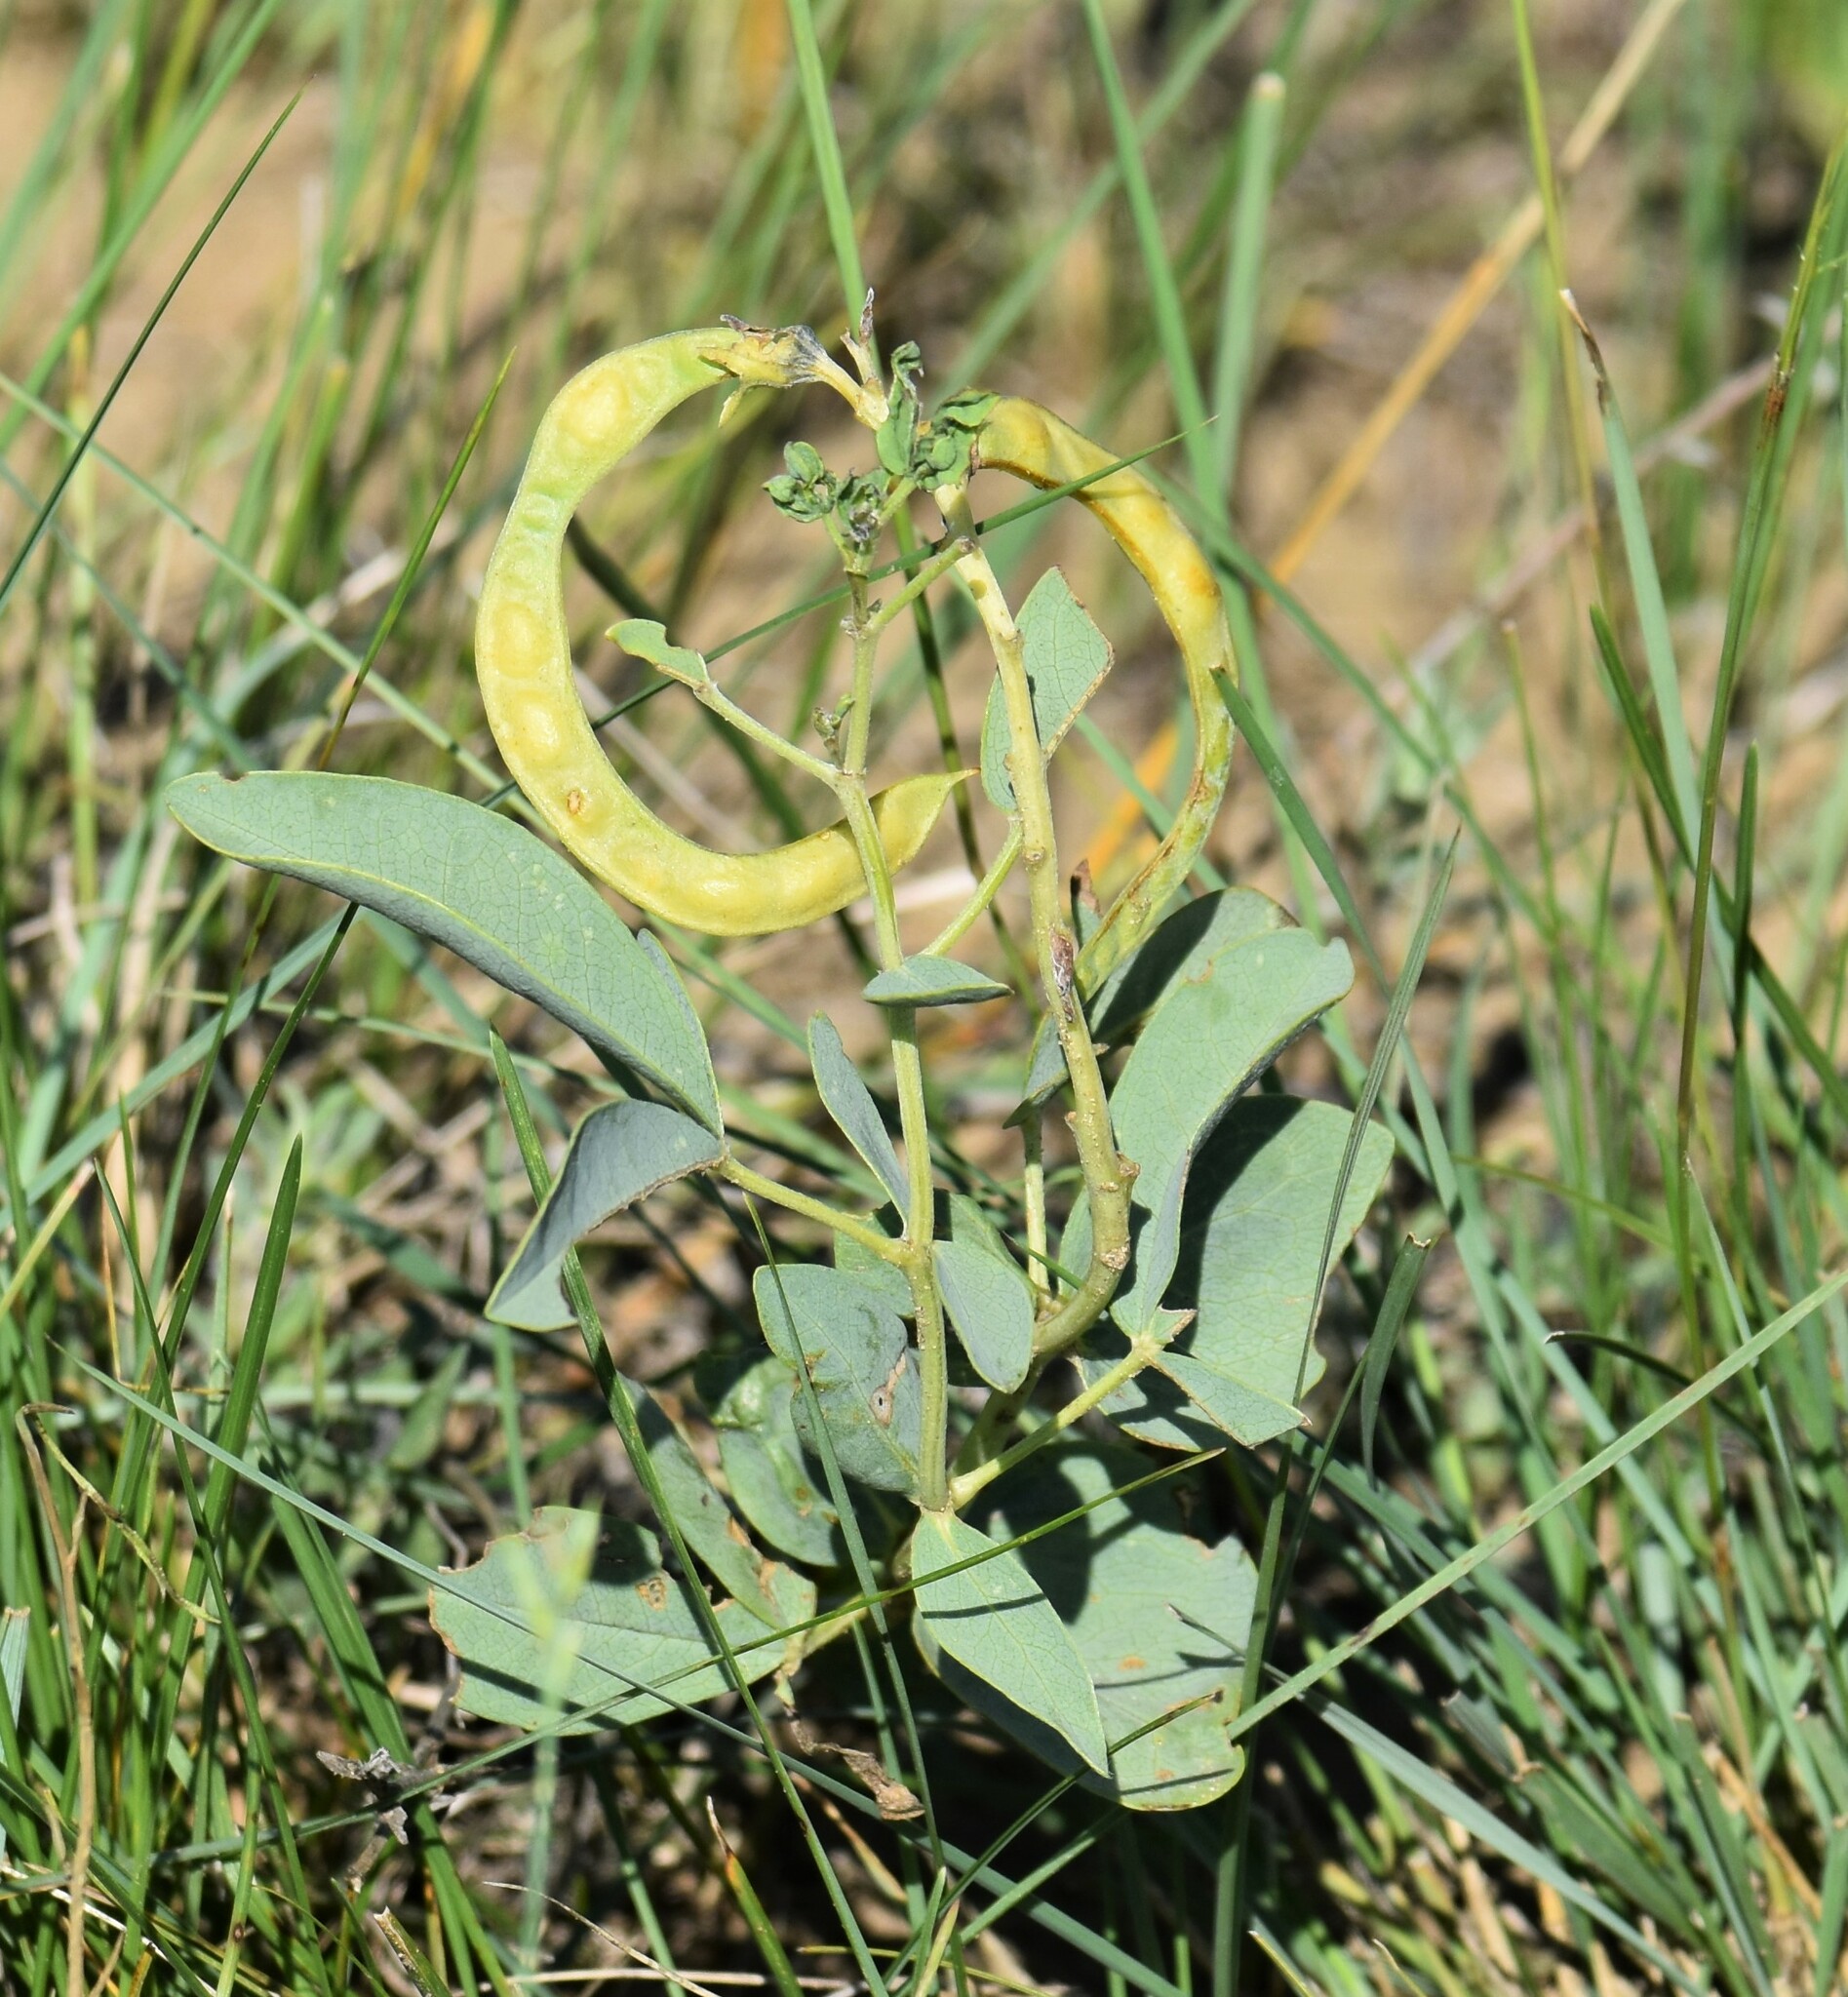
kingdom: Plantae
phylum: Tracheophyta
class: Magnoliopsida
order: Fabales
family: Fabaceae
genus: Thermopsis
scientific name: Thermopsis rhombifolia
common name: Circle-pod-pea
